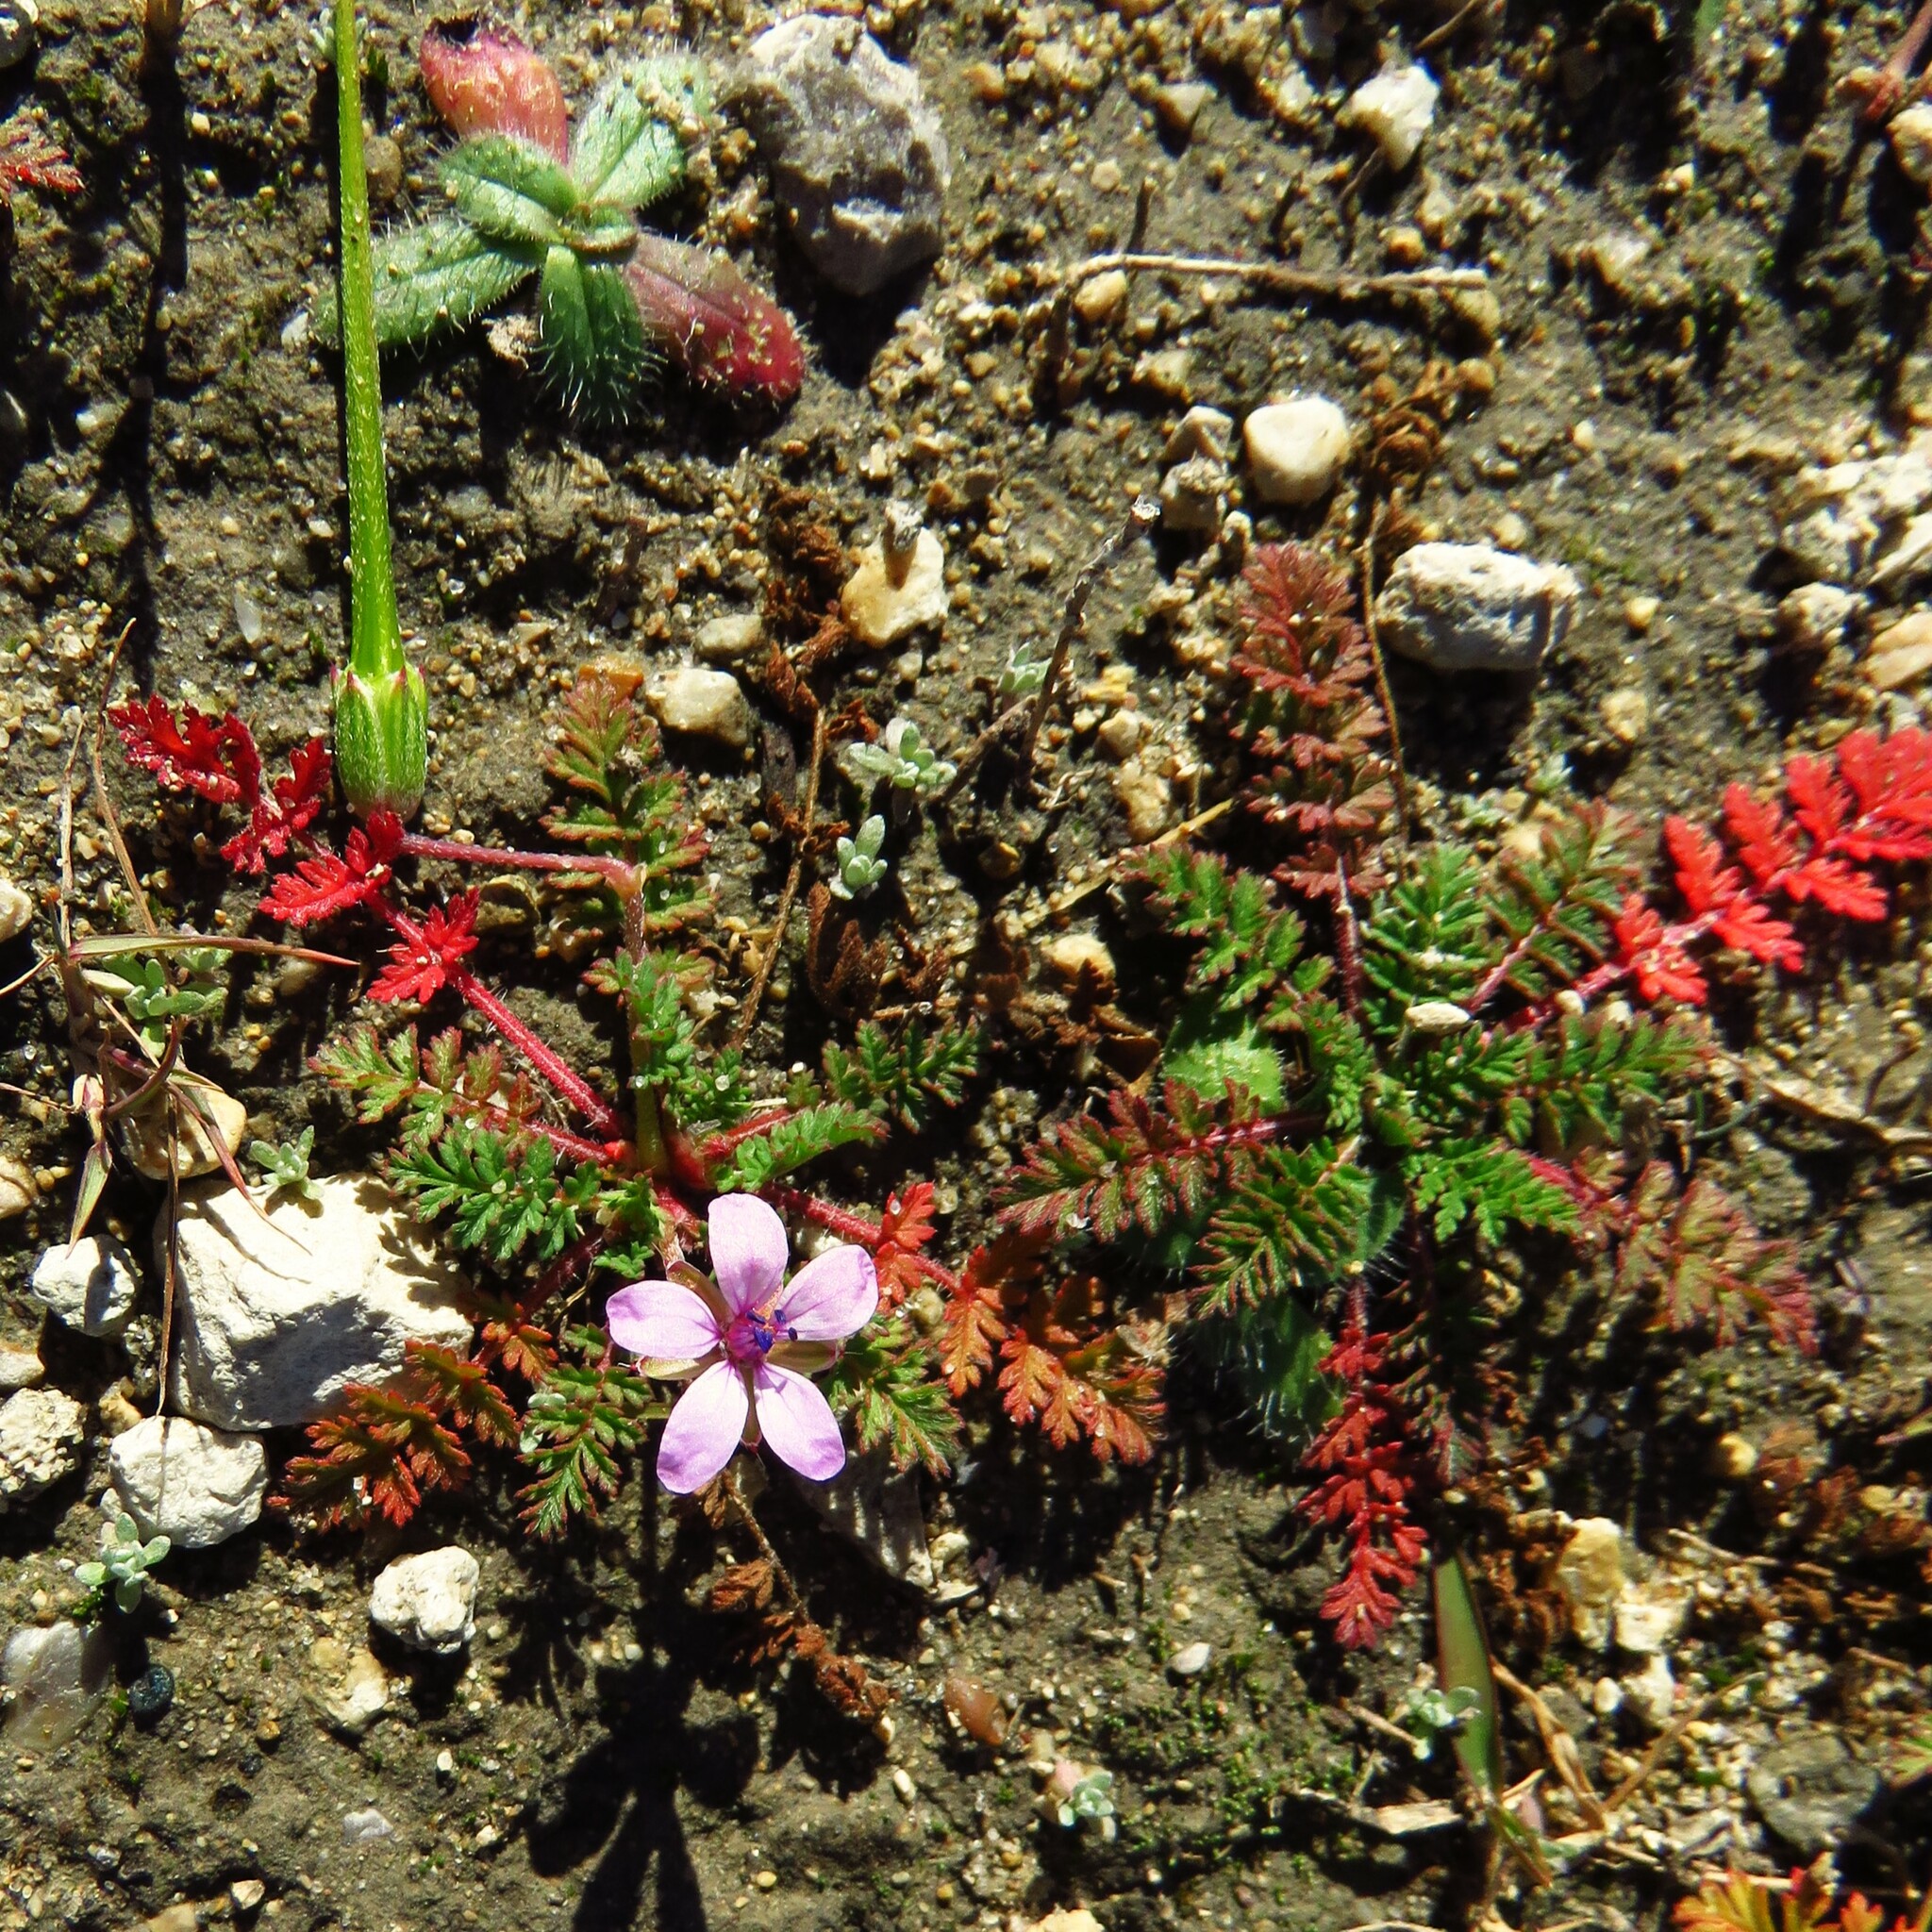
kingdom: Plantae
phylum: Tracheophyta
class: Magnoliopsida
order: Geraniales
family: Geraniaceae
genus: Erodium
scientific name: Erodium cicutarium
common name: Common stork's-bill
